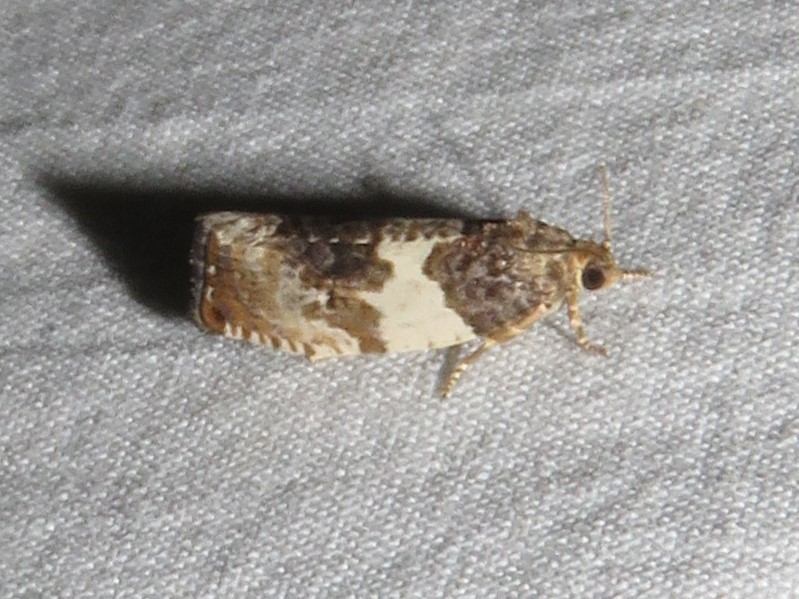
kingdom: Animalia
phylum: Arthropoda
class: Insecta
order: Lepidoptera
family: Tortricidae
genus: Pseudosciaphila
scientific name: Pseudosciaphila duplex
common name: Poplar leafroller moth
